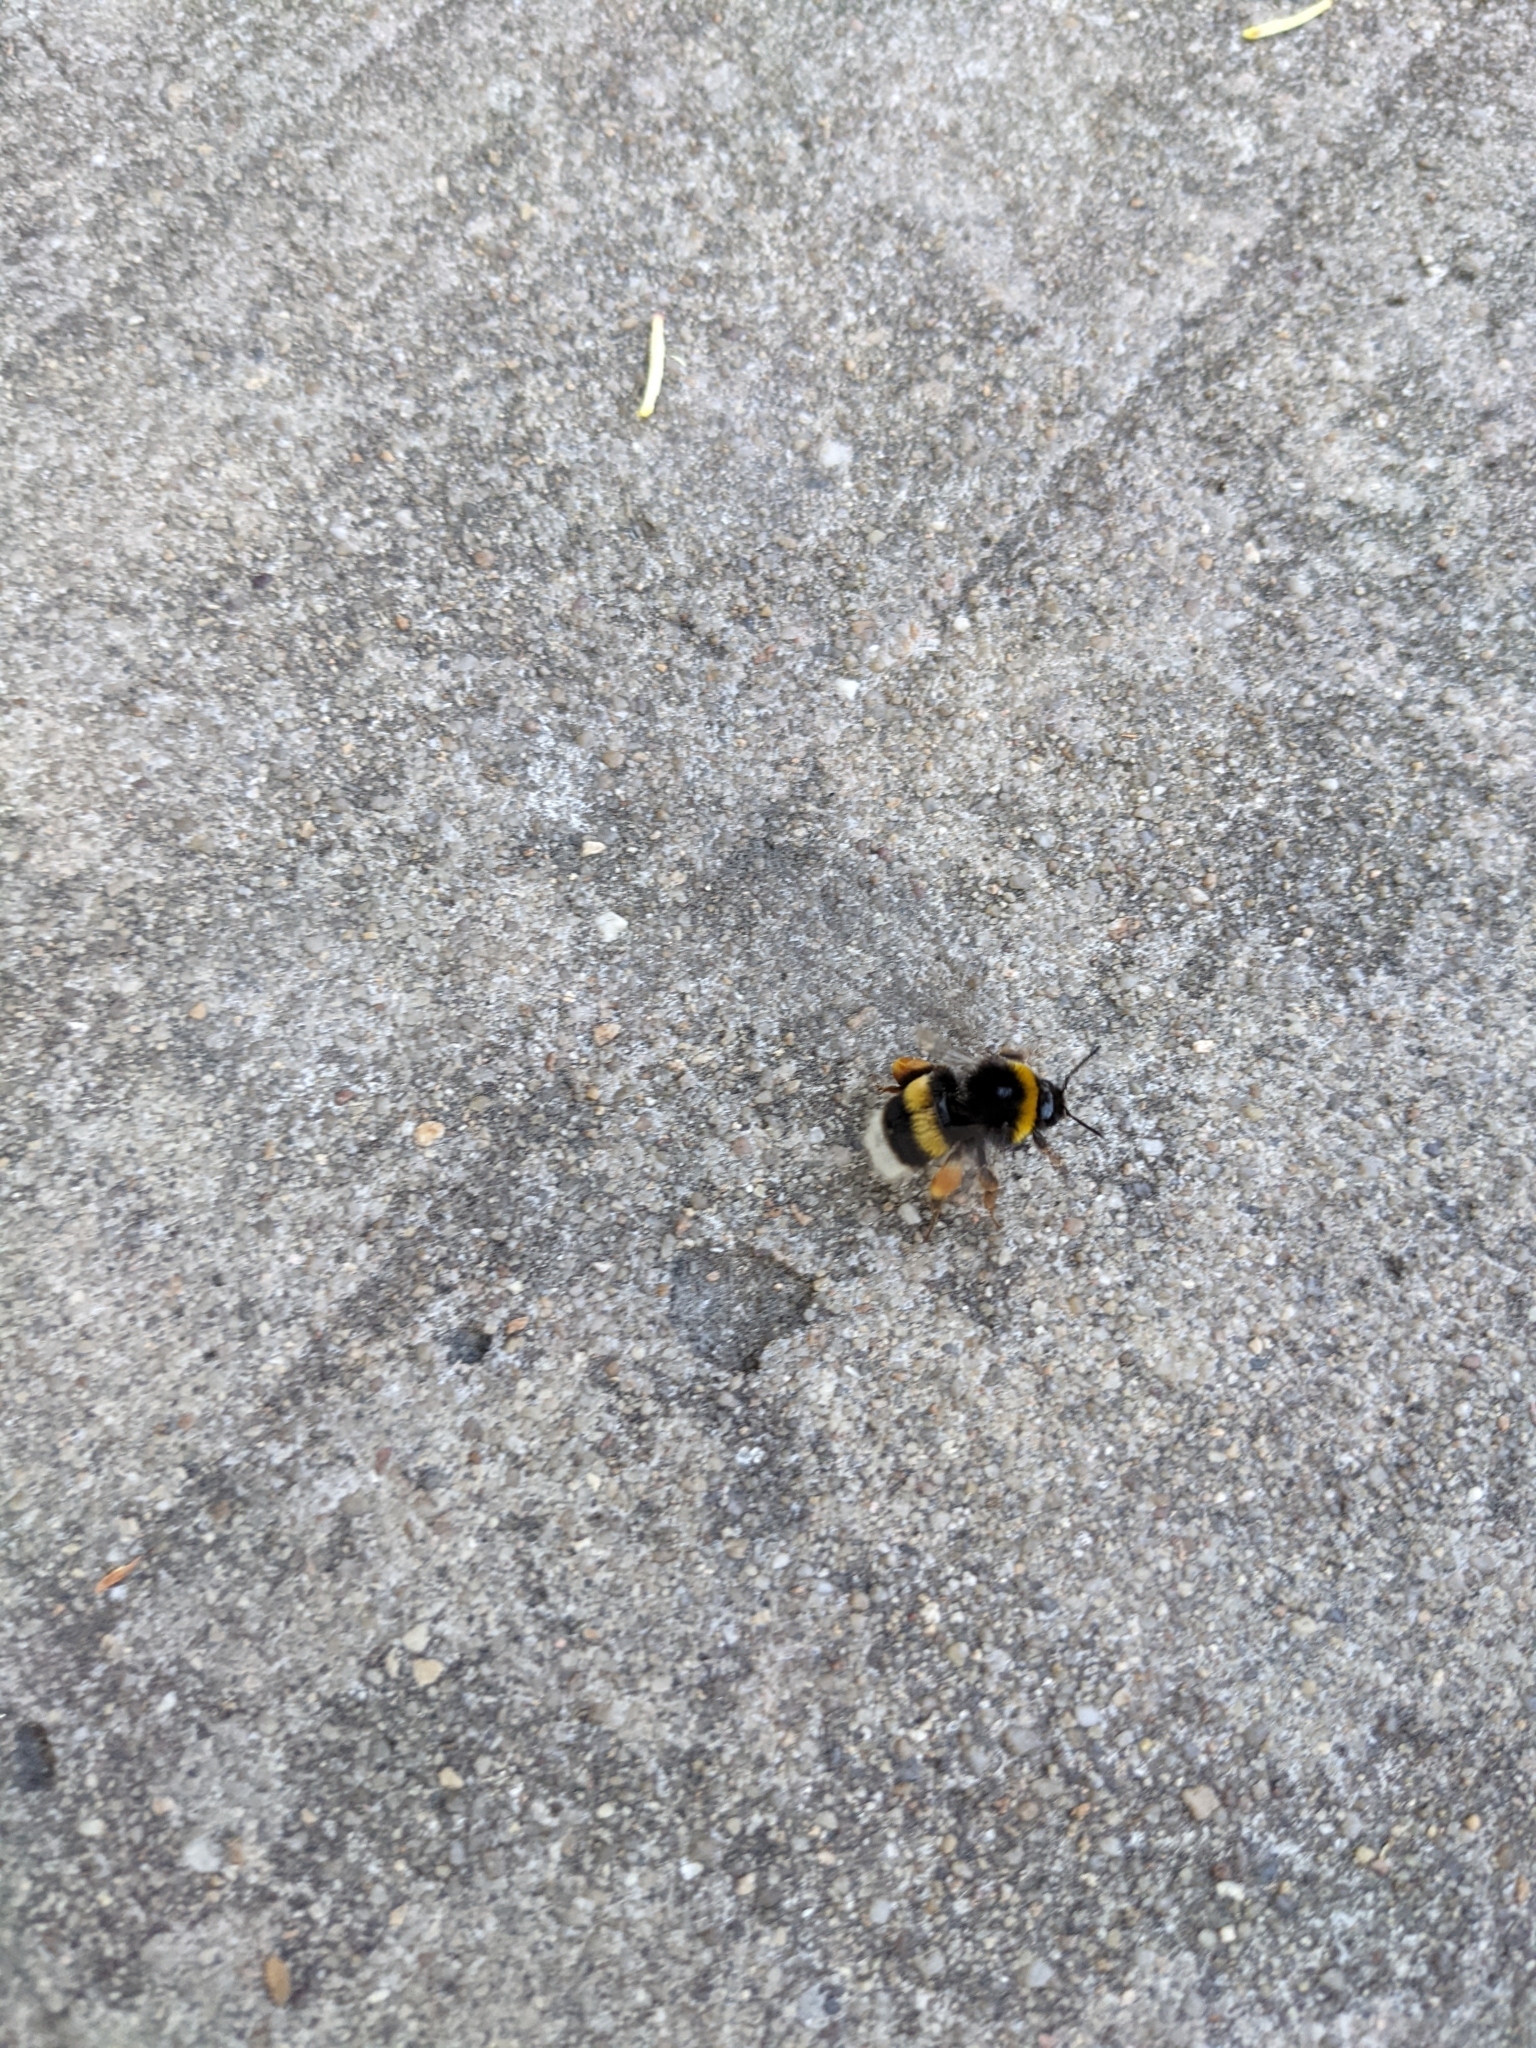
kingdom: Animalia
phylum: Arthropoda
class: Insecta
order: Hymenoptera
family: Apidae
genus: Bombus
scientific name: Bombus terrestris
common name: Buff-tailed bumblebee
